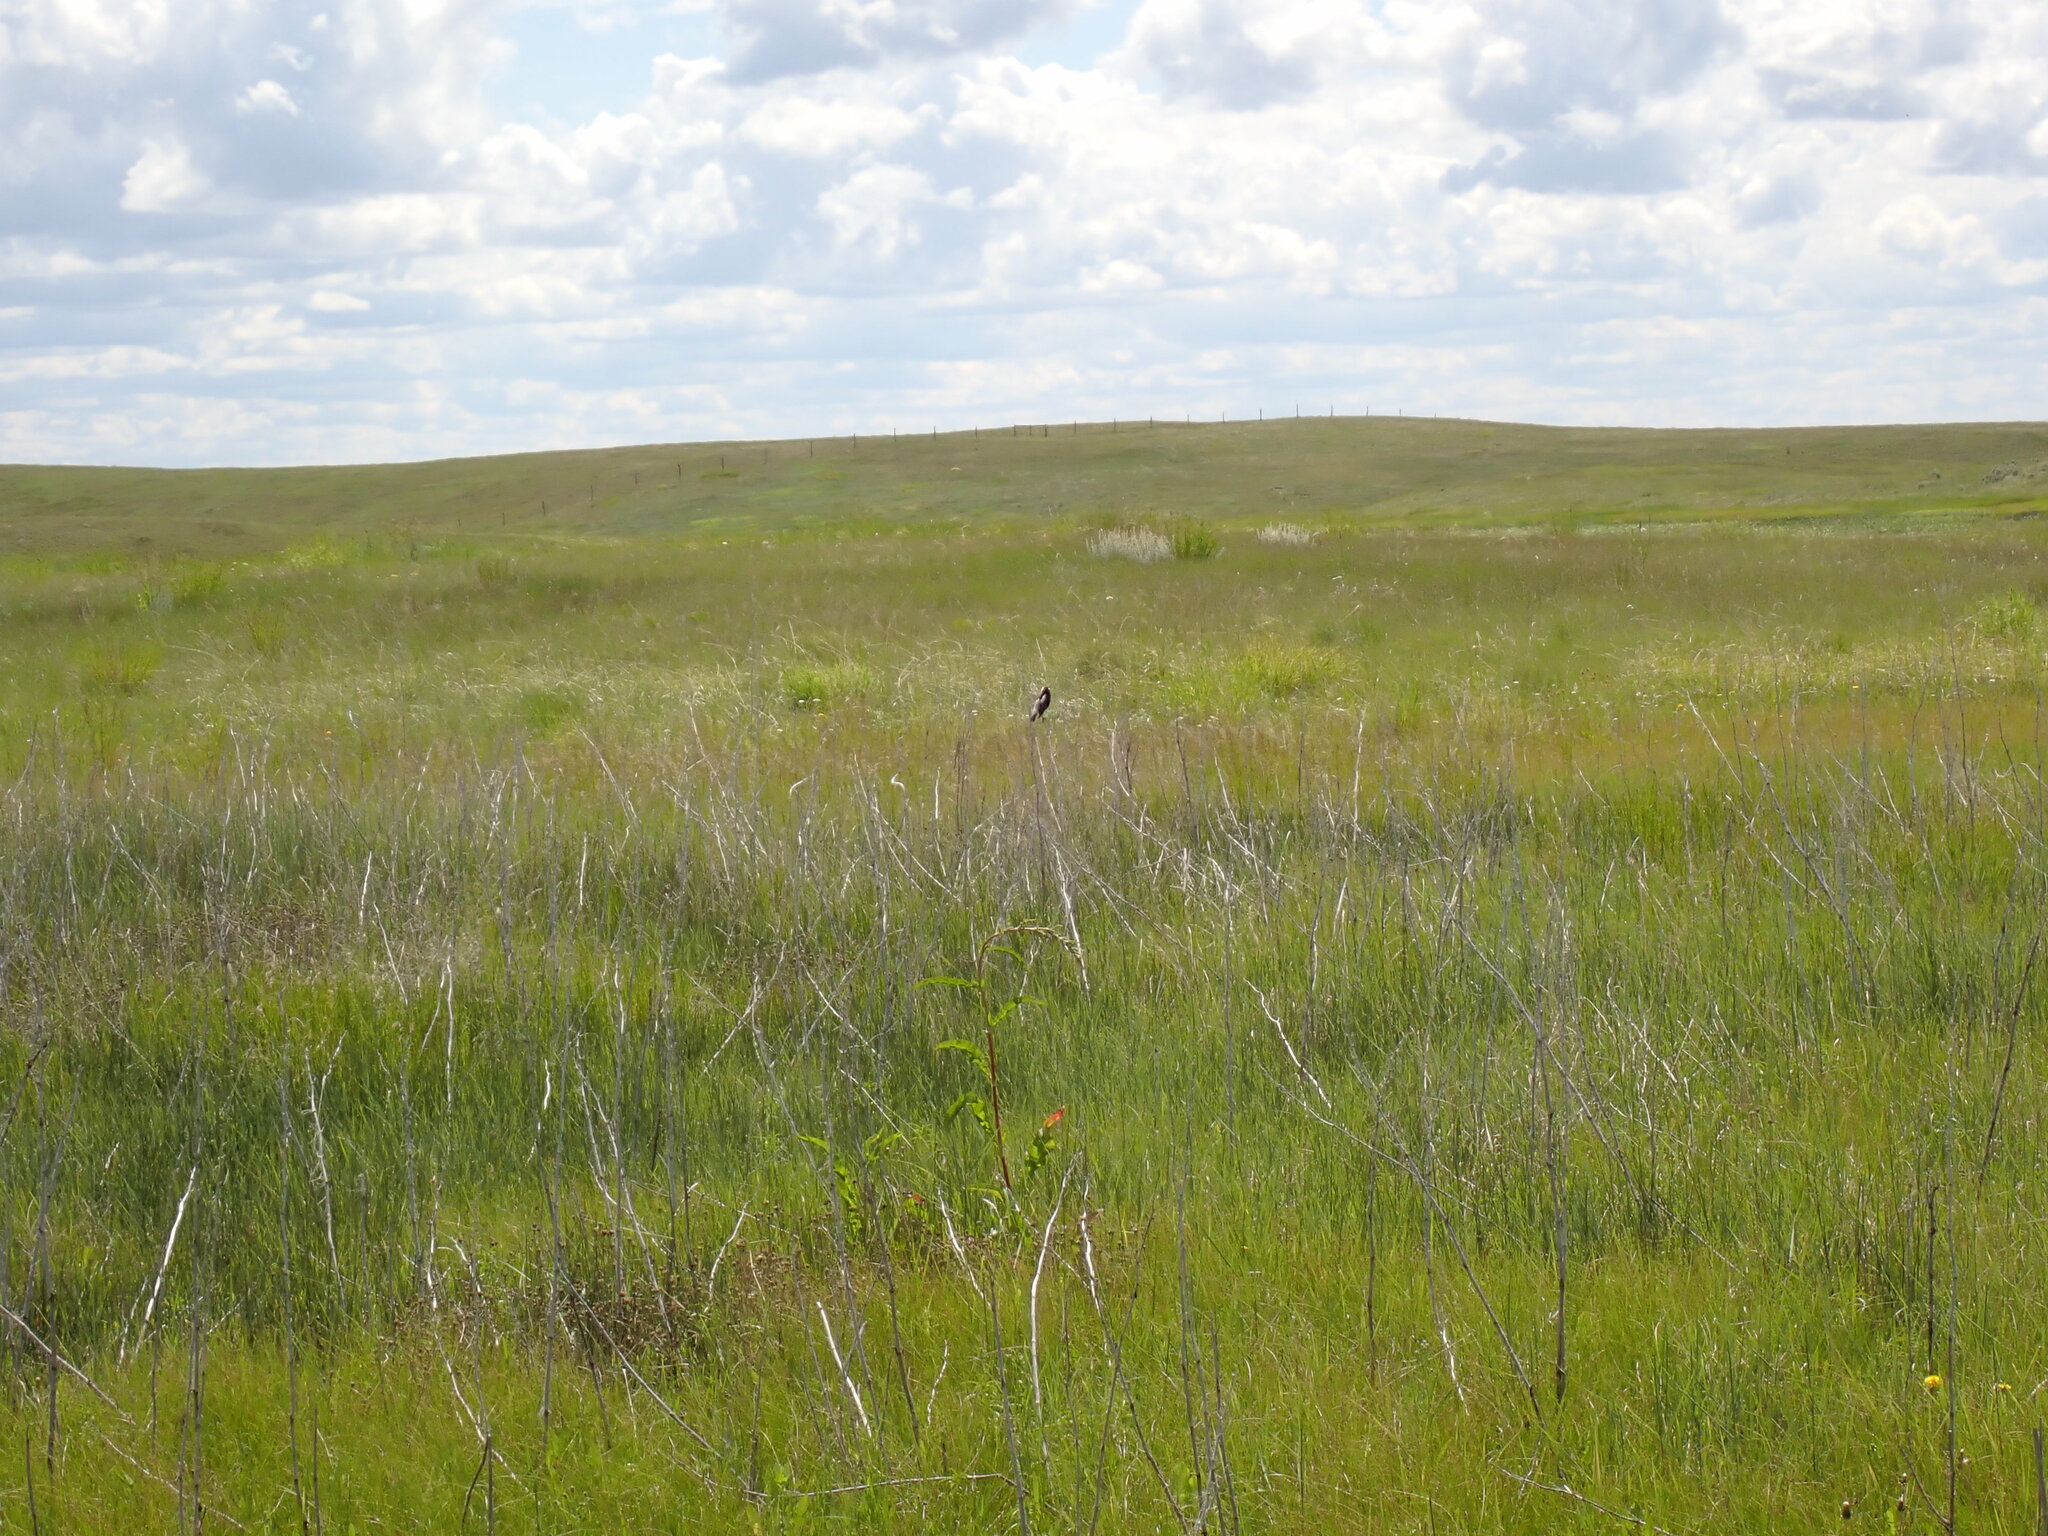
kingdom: Animalia
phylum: Chordata
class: Aves
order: Passeriformes
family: Icteridae
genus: Dolichonyx
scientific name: Dolichonyx oryzivorus
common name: Bobolink
